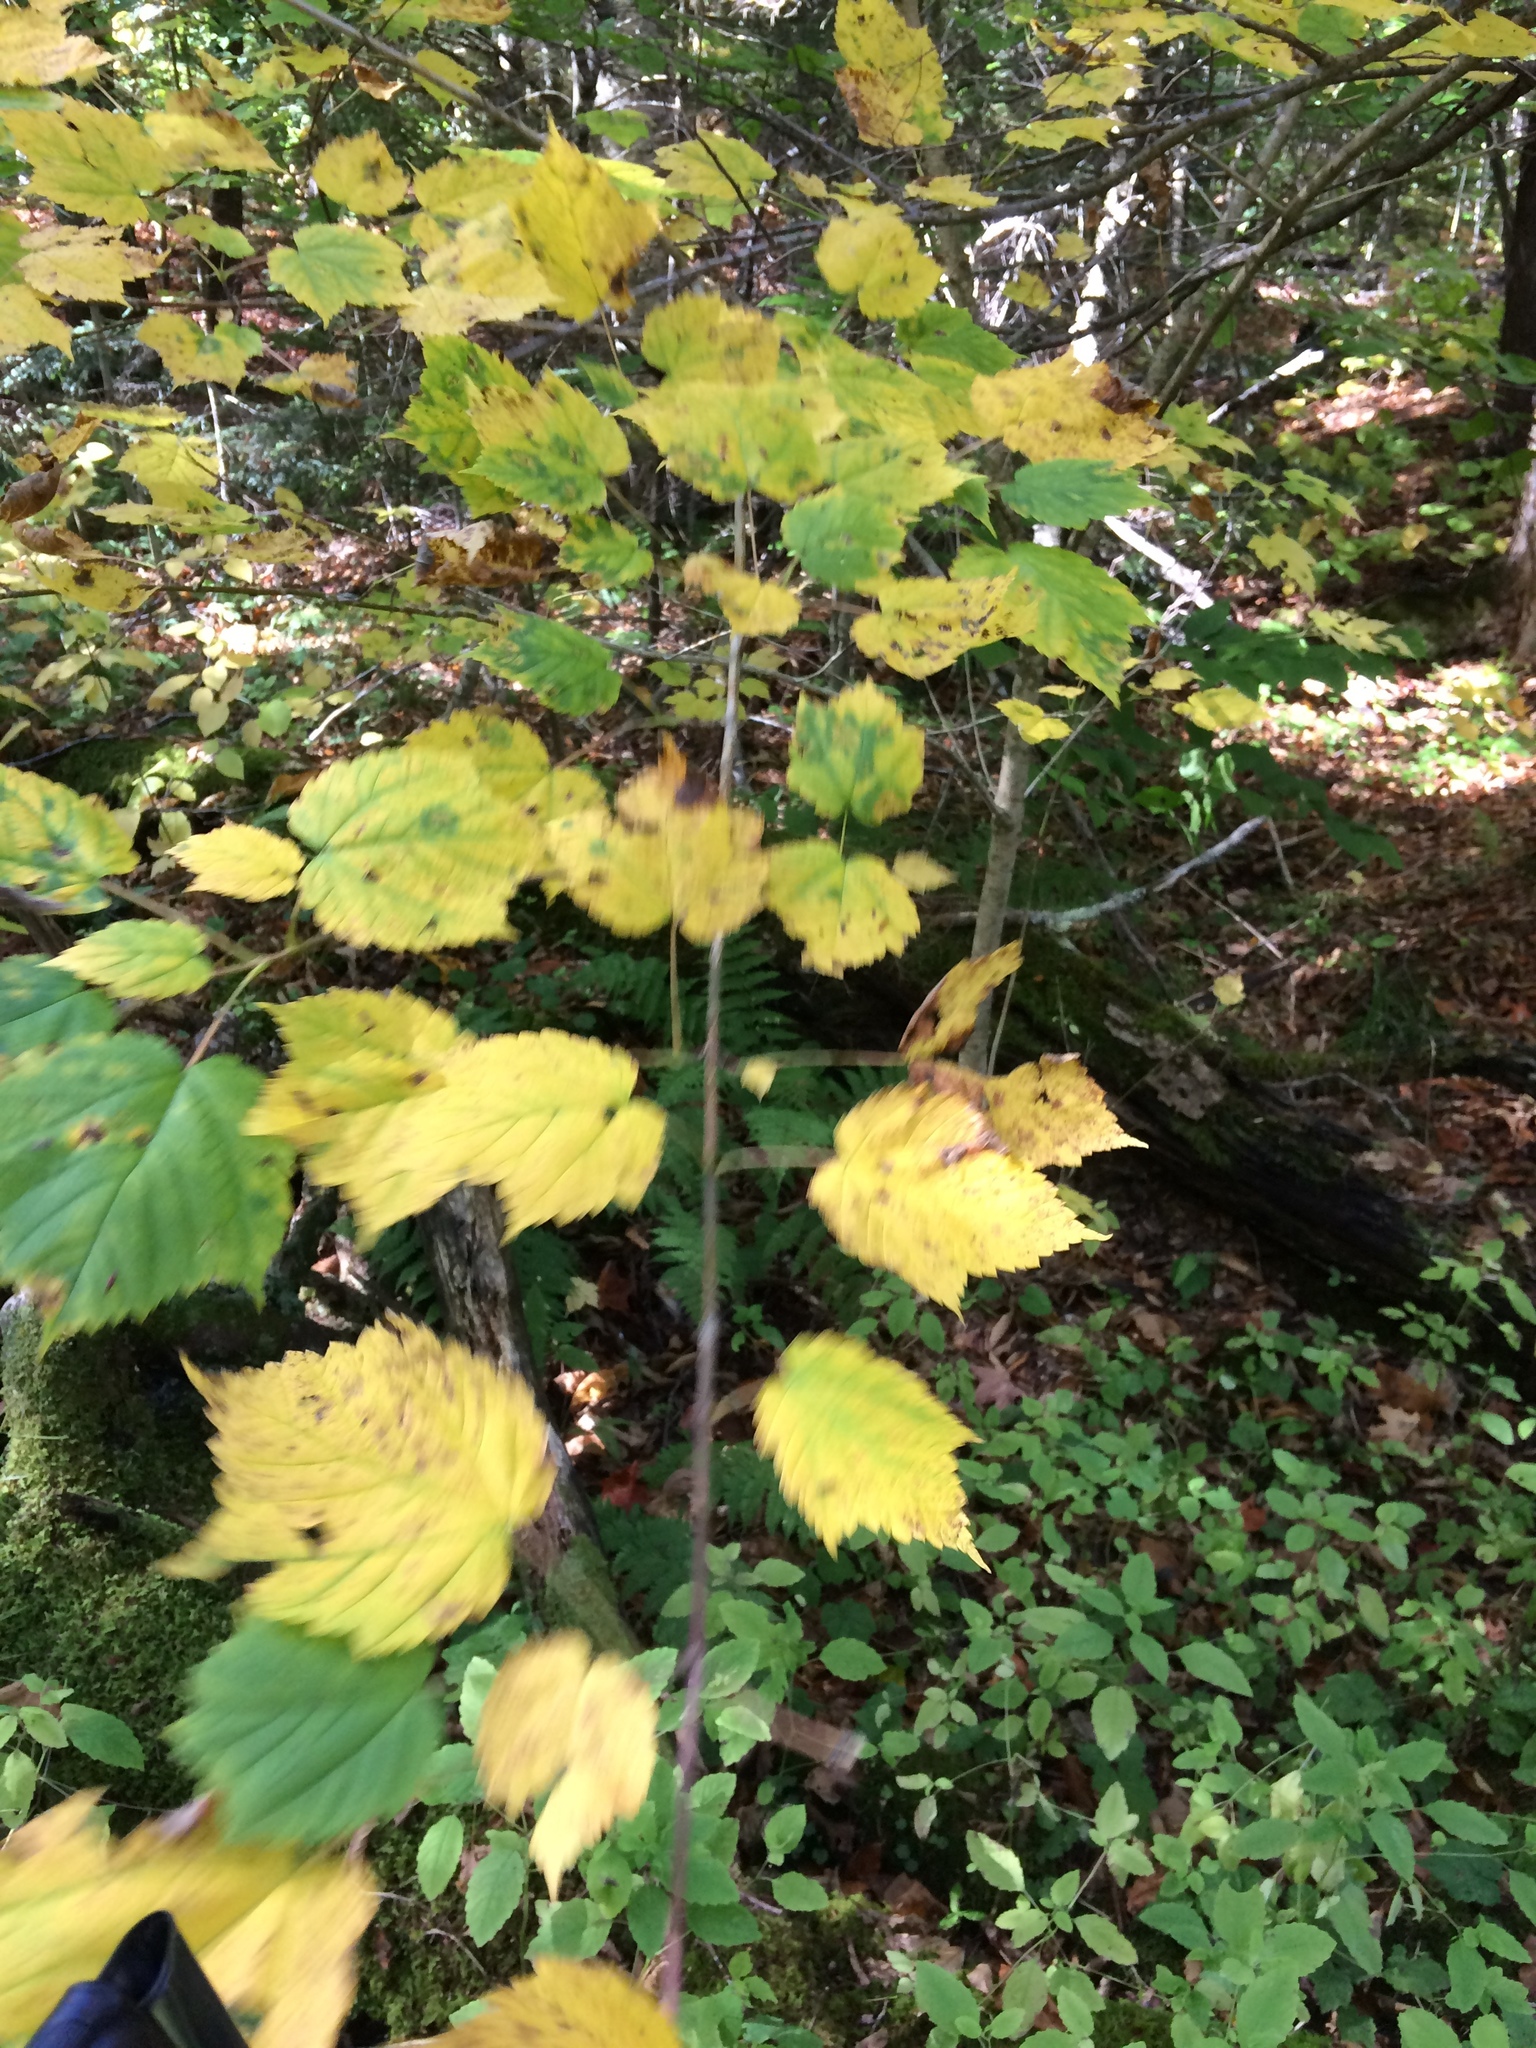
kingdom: Plantae
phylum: Tracheophyta
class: Magnoliopsida
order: Sapindales
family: Sapindaceae
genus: Acer
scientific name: Acer spicatum
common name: Mountain maple
